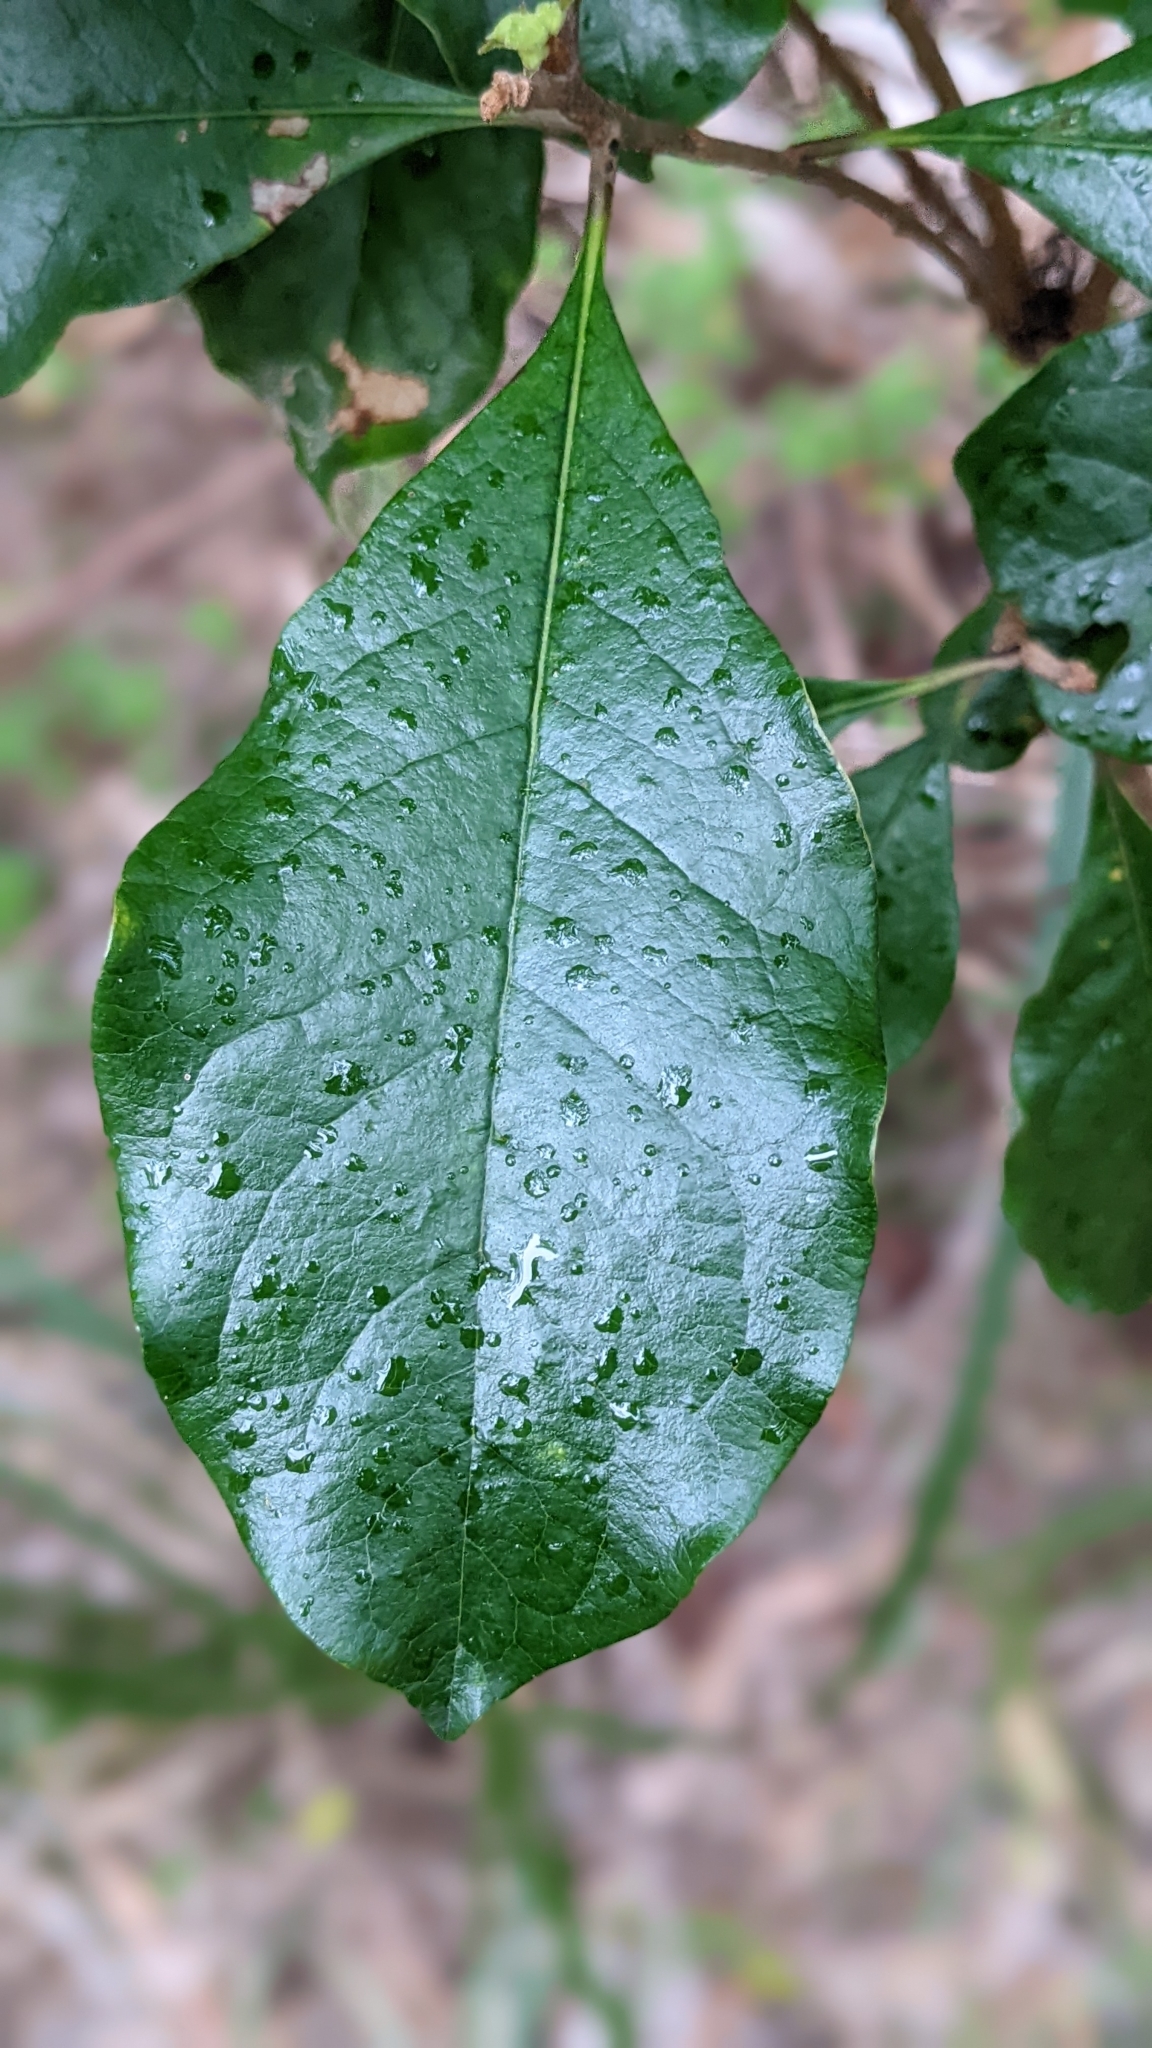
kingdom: Plantae
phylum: Tracheophyta
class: Magnoliopsida
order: Apiales
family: Pittosporaceae
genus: Pittosporum
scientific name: Pittosporum revolutum
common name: Brisbane-laurel
